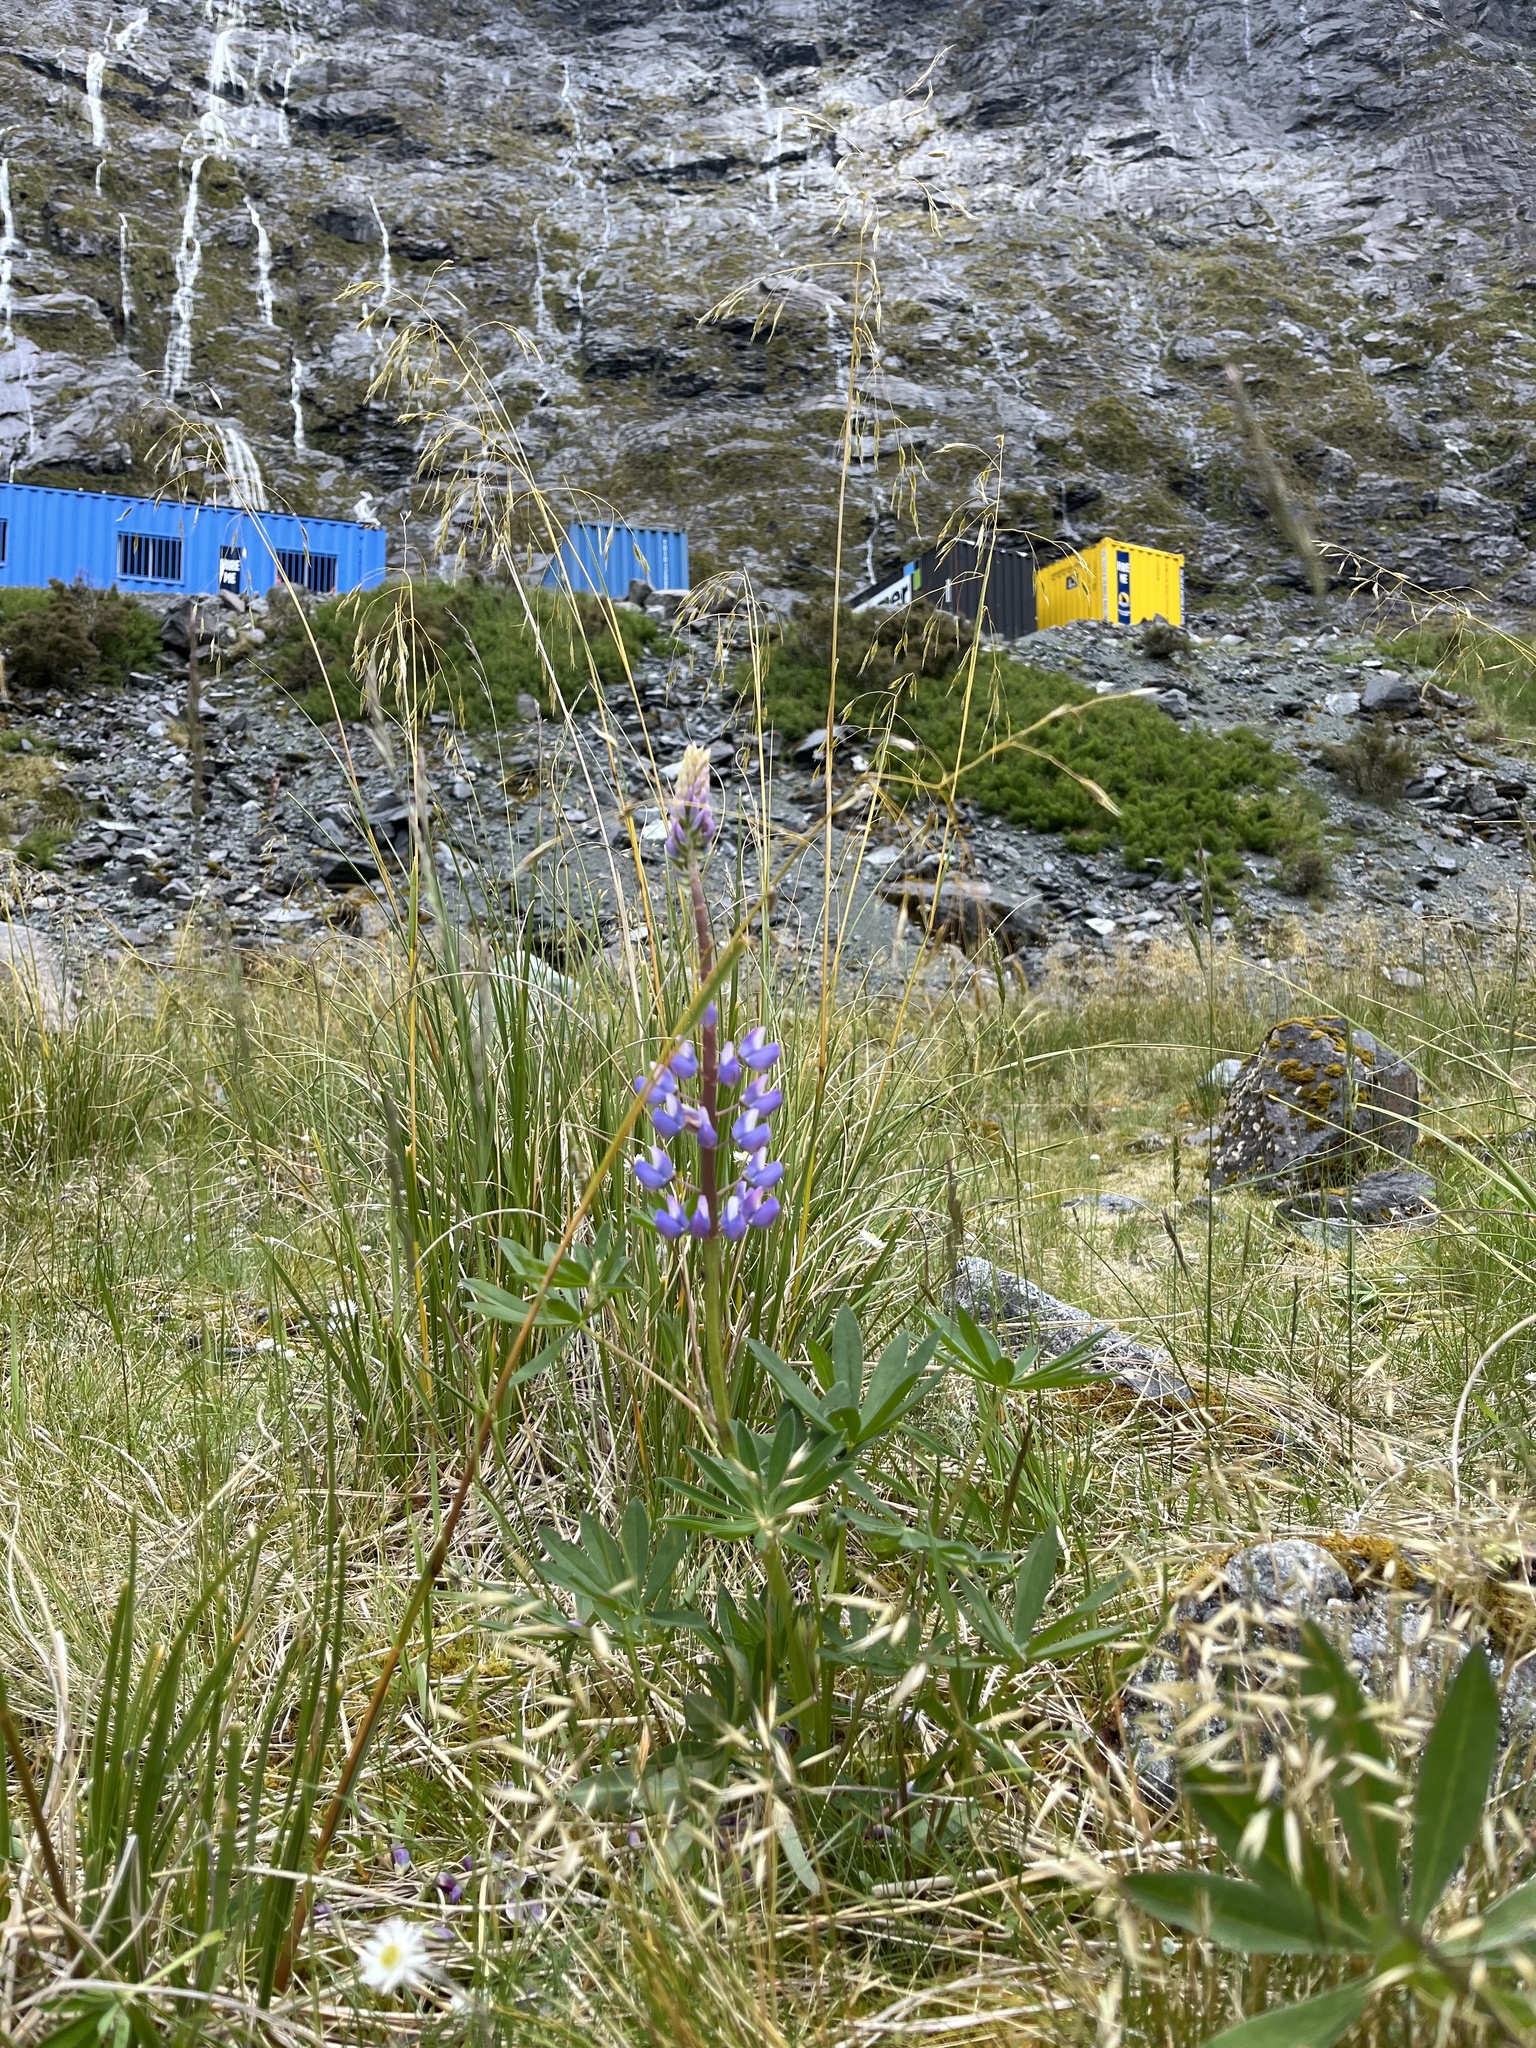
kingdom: Plantae
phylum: Tracheophyta
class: Magnoliopsida
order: Fabales
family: Fabaceae
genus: Lupinus
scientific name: Lupinus polyphyllus
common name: Garden lupin
